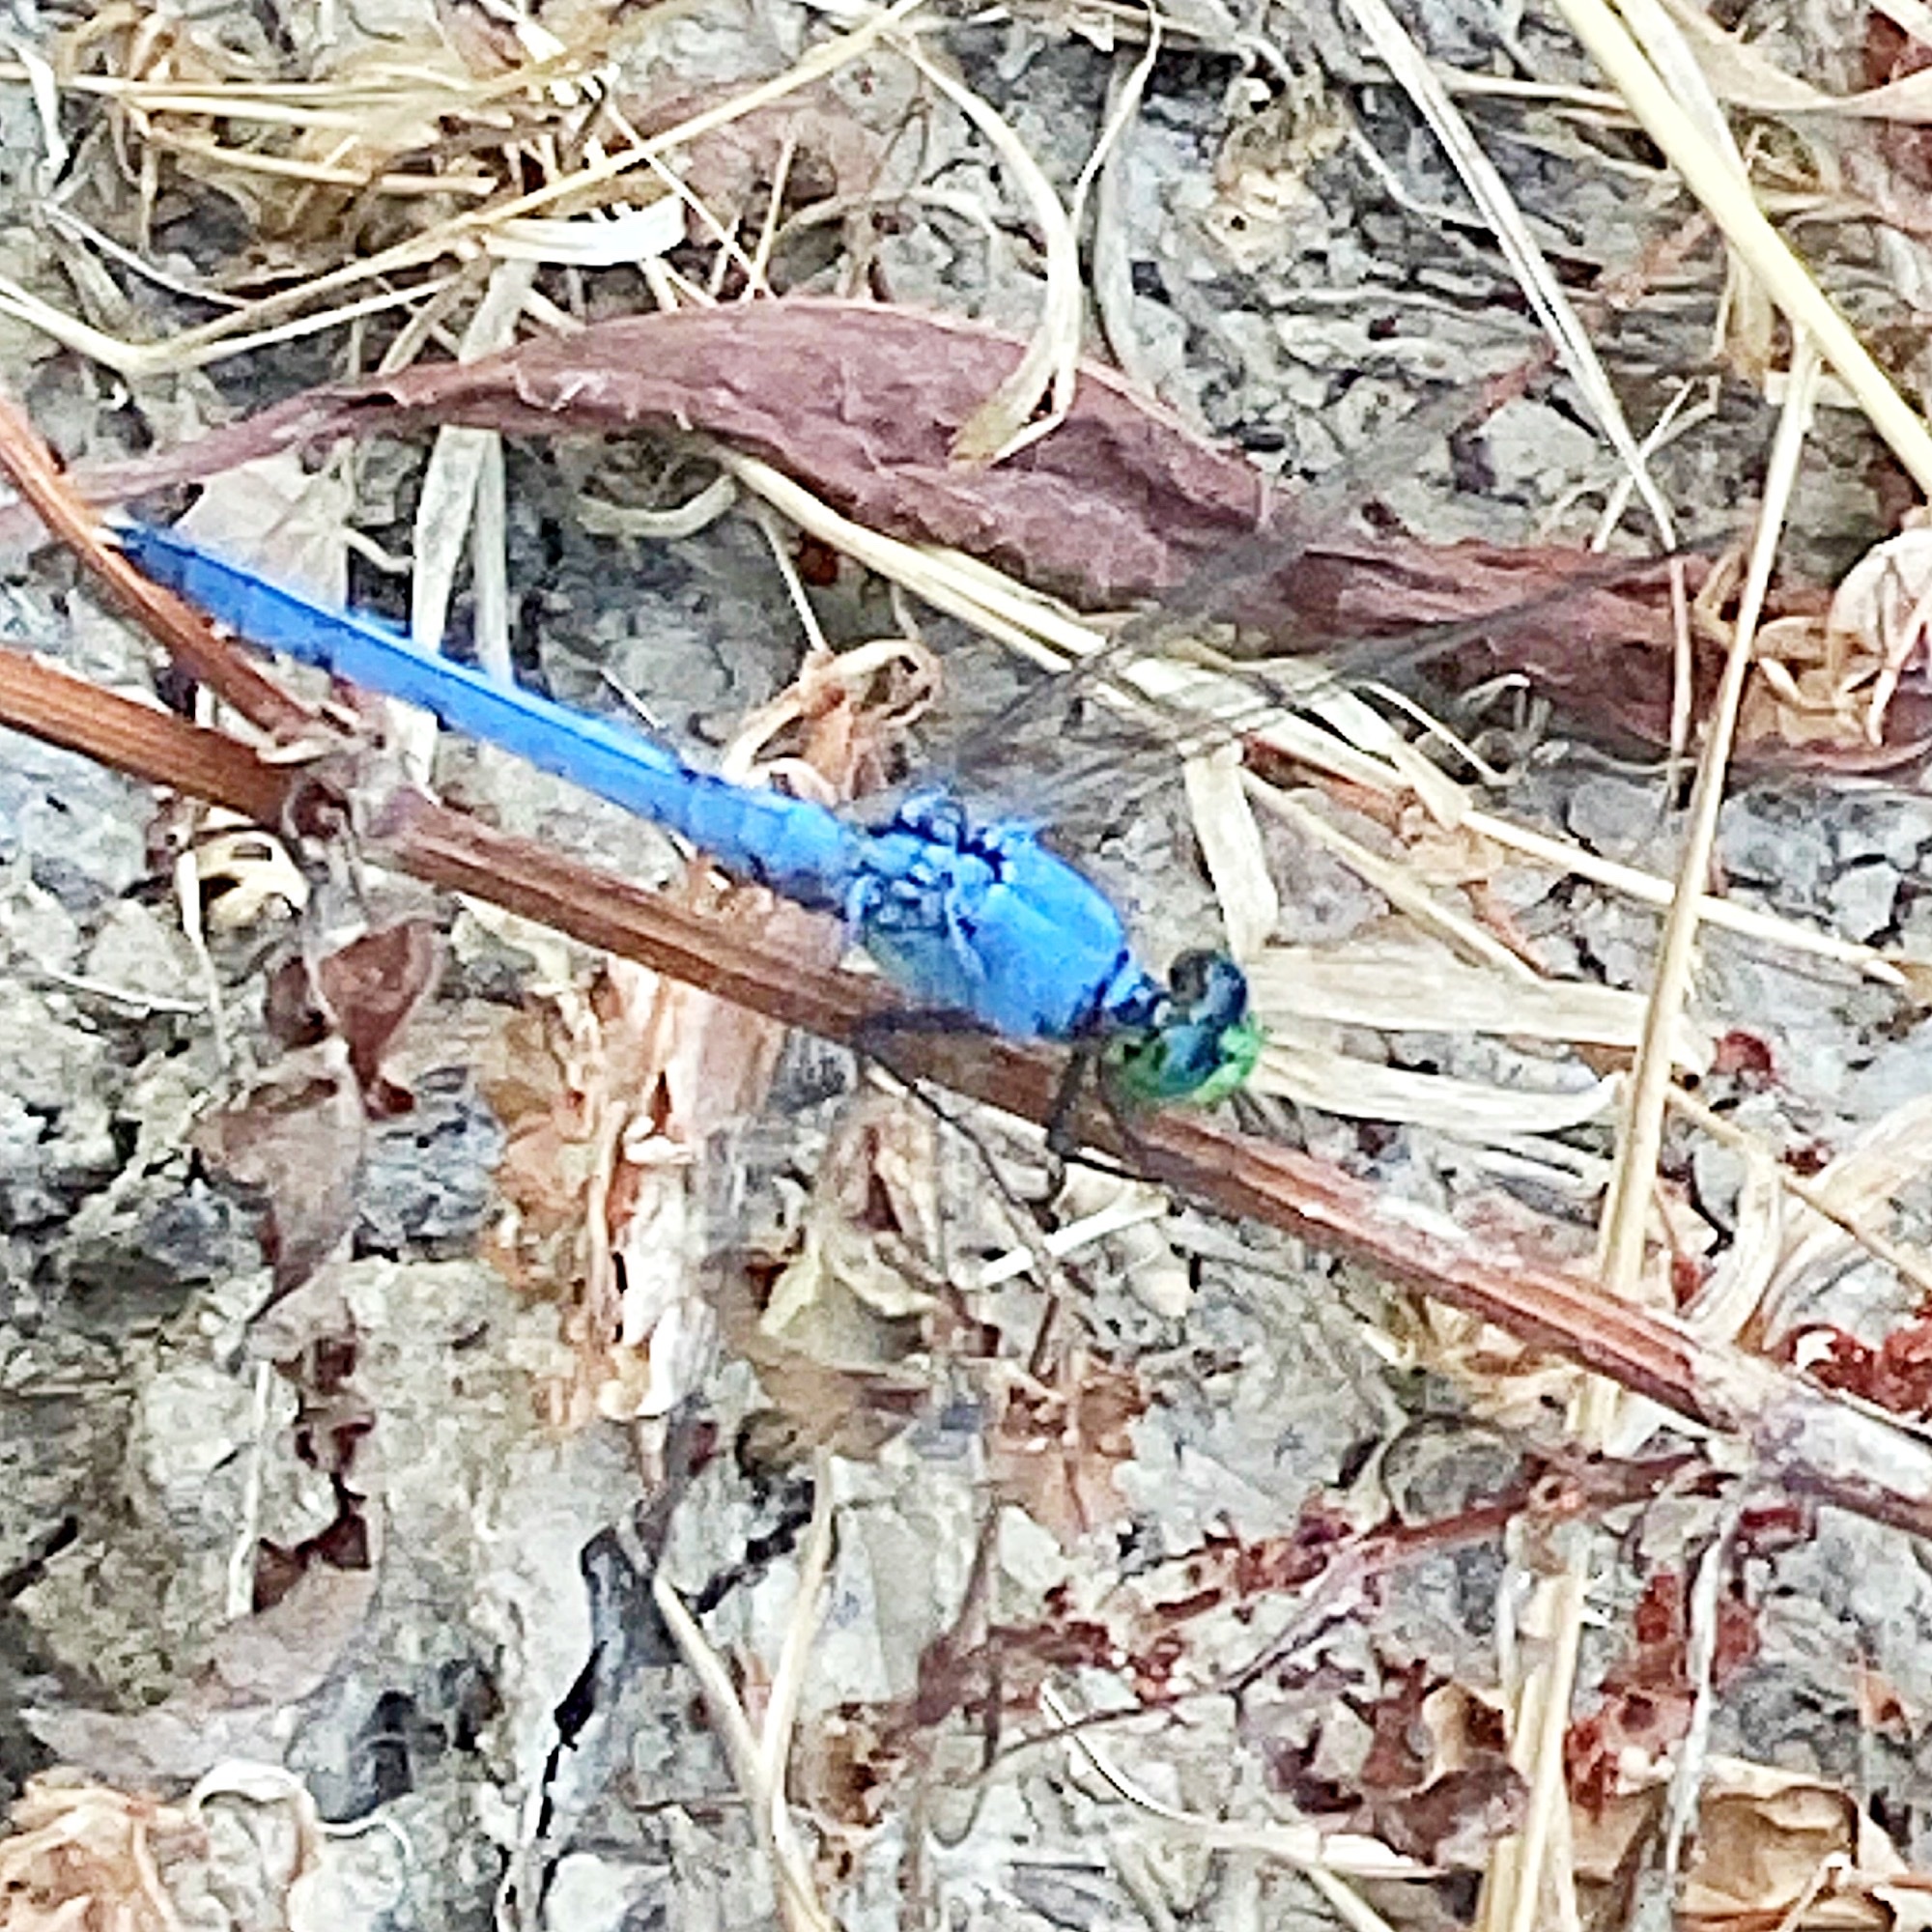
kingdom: Animalia
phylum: Arthropoda
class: Insecta
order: Odonata
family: Libellulidae
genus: Erythemis
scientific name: Erythemis simplicicollis
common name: Eastern pondhawk
